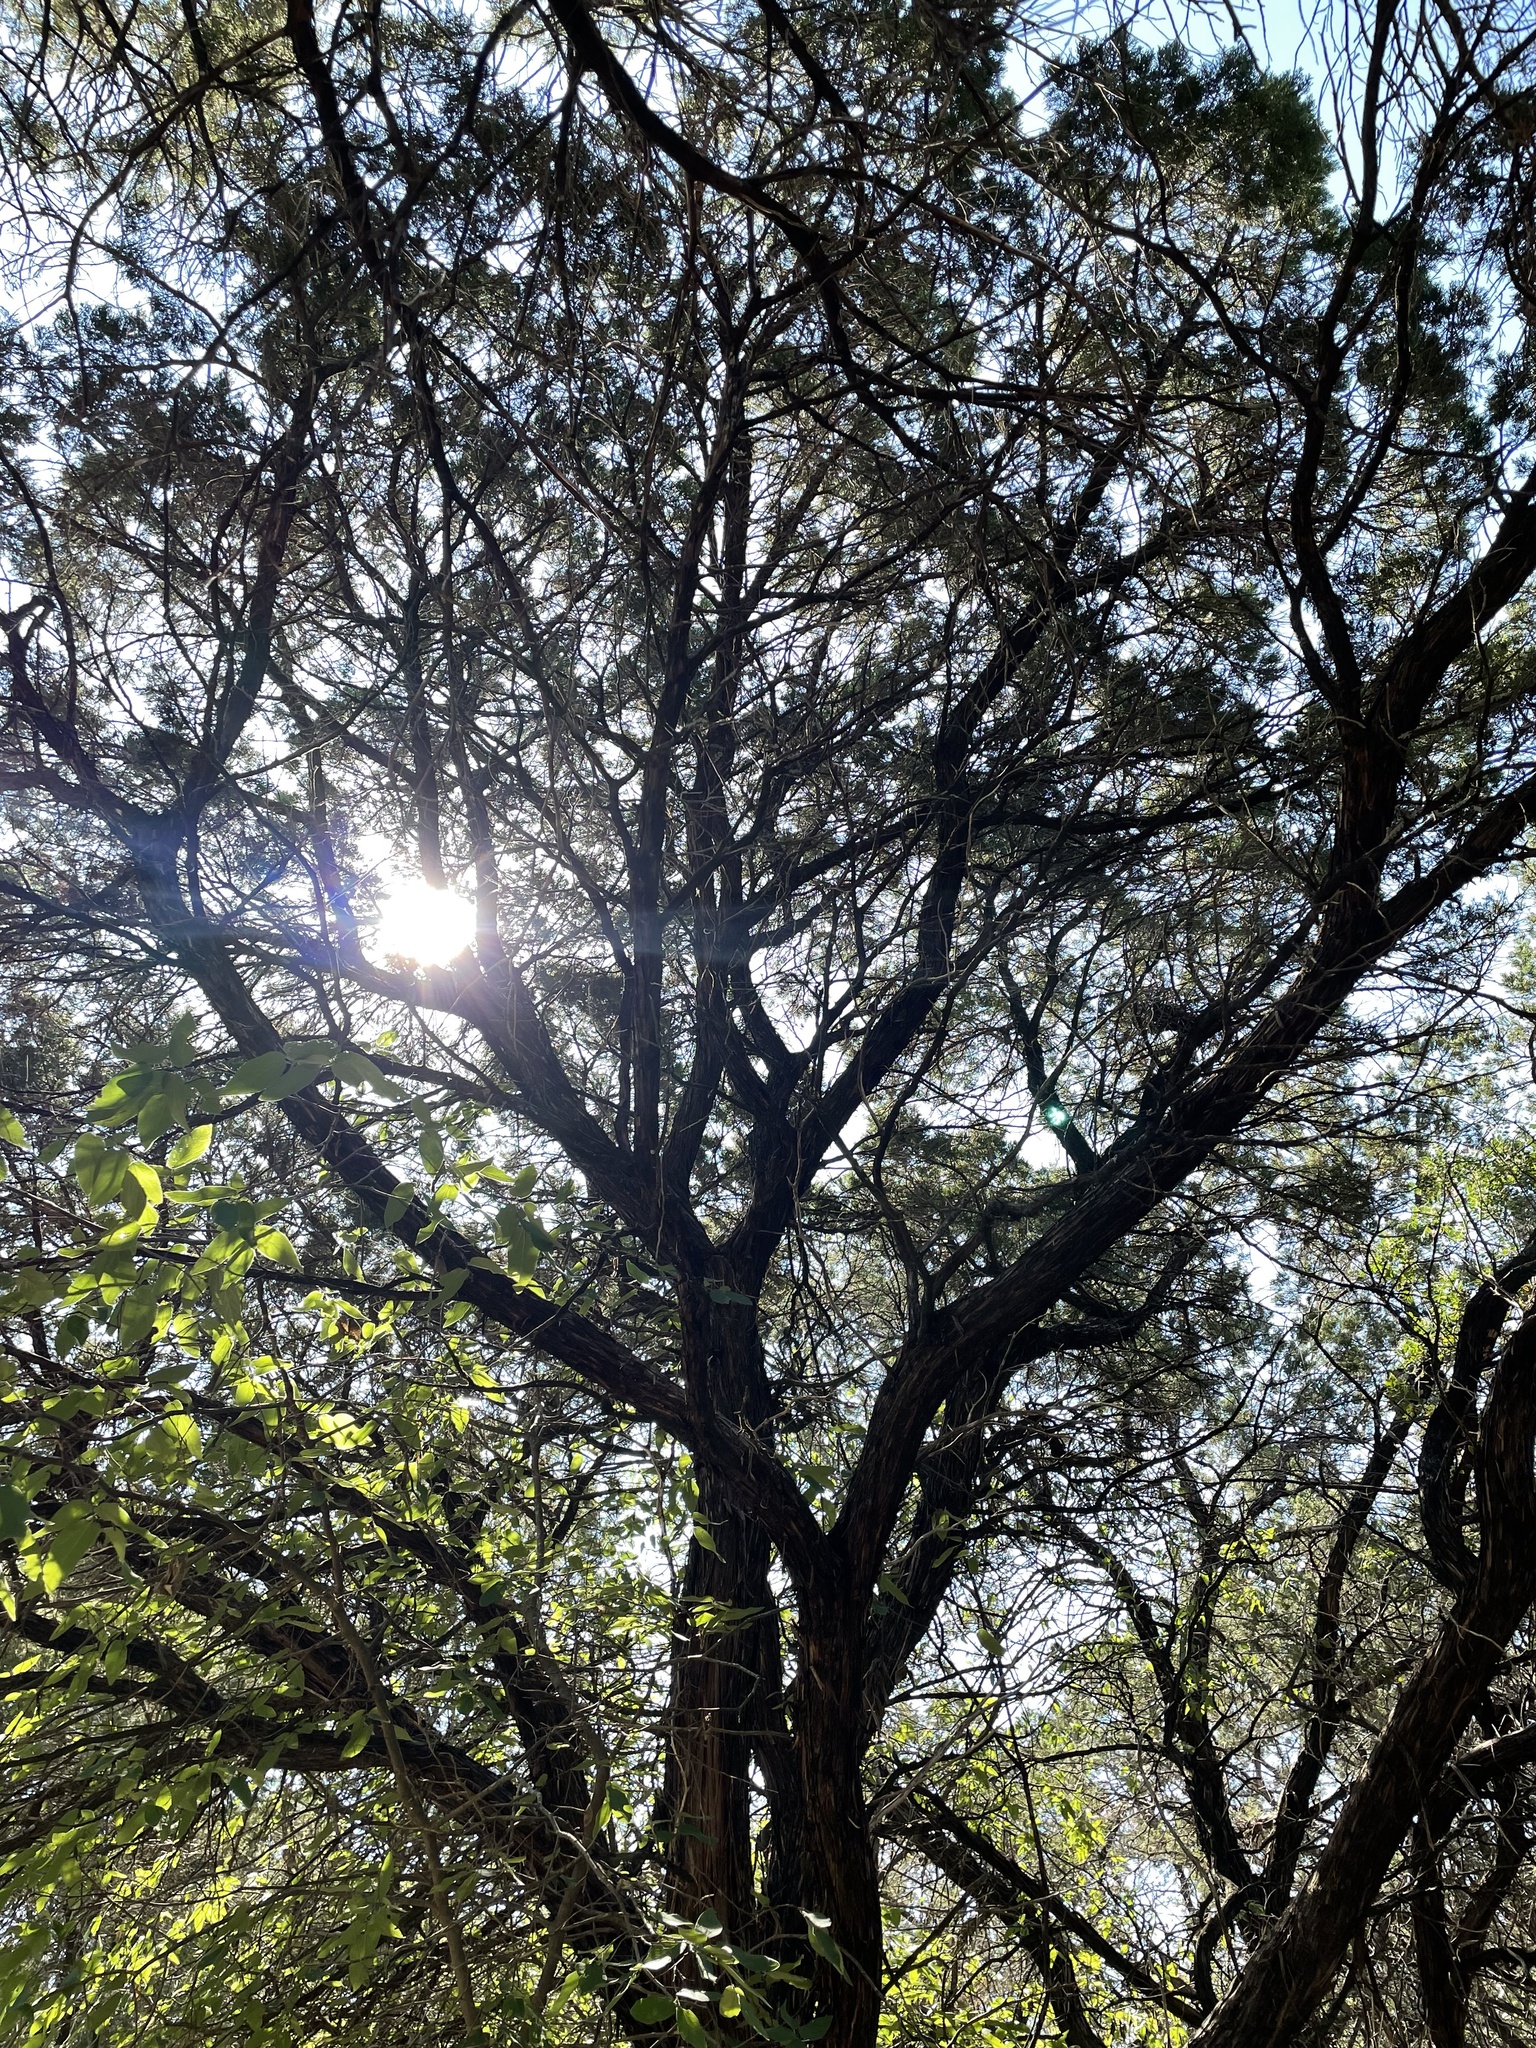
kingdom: Plantae
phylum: Tracheophyta
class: Pinopsida
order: Pinales
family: Cupressaceae
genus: Juniperus
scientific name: Juniperus ashei
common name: Mexican juniper
